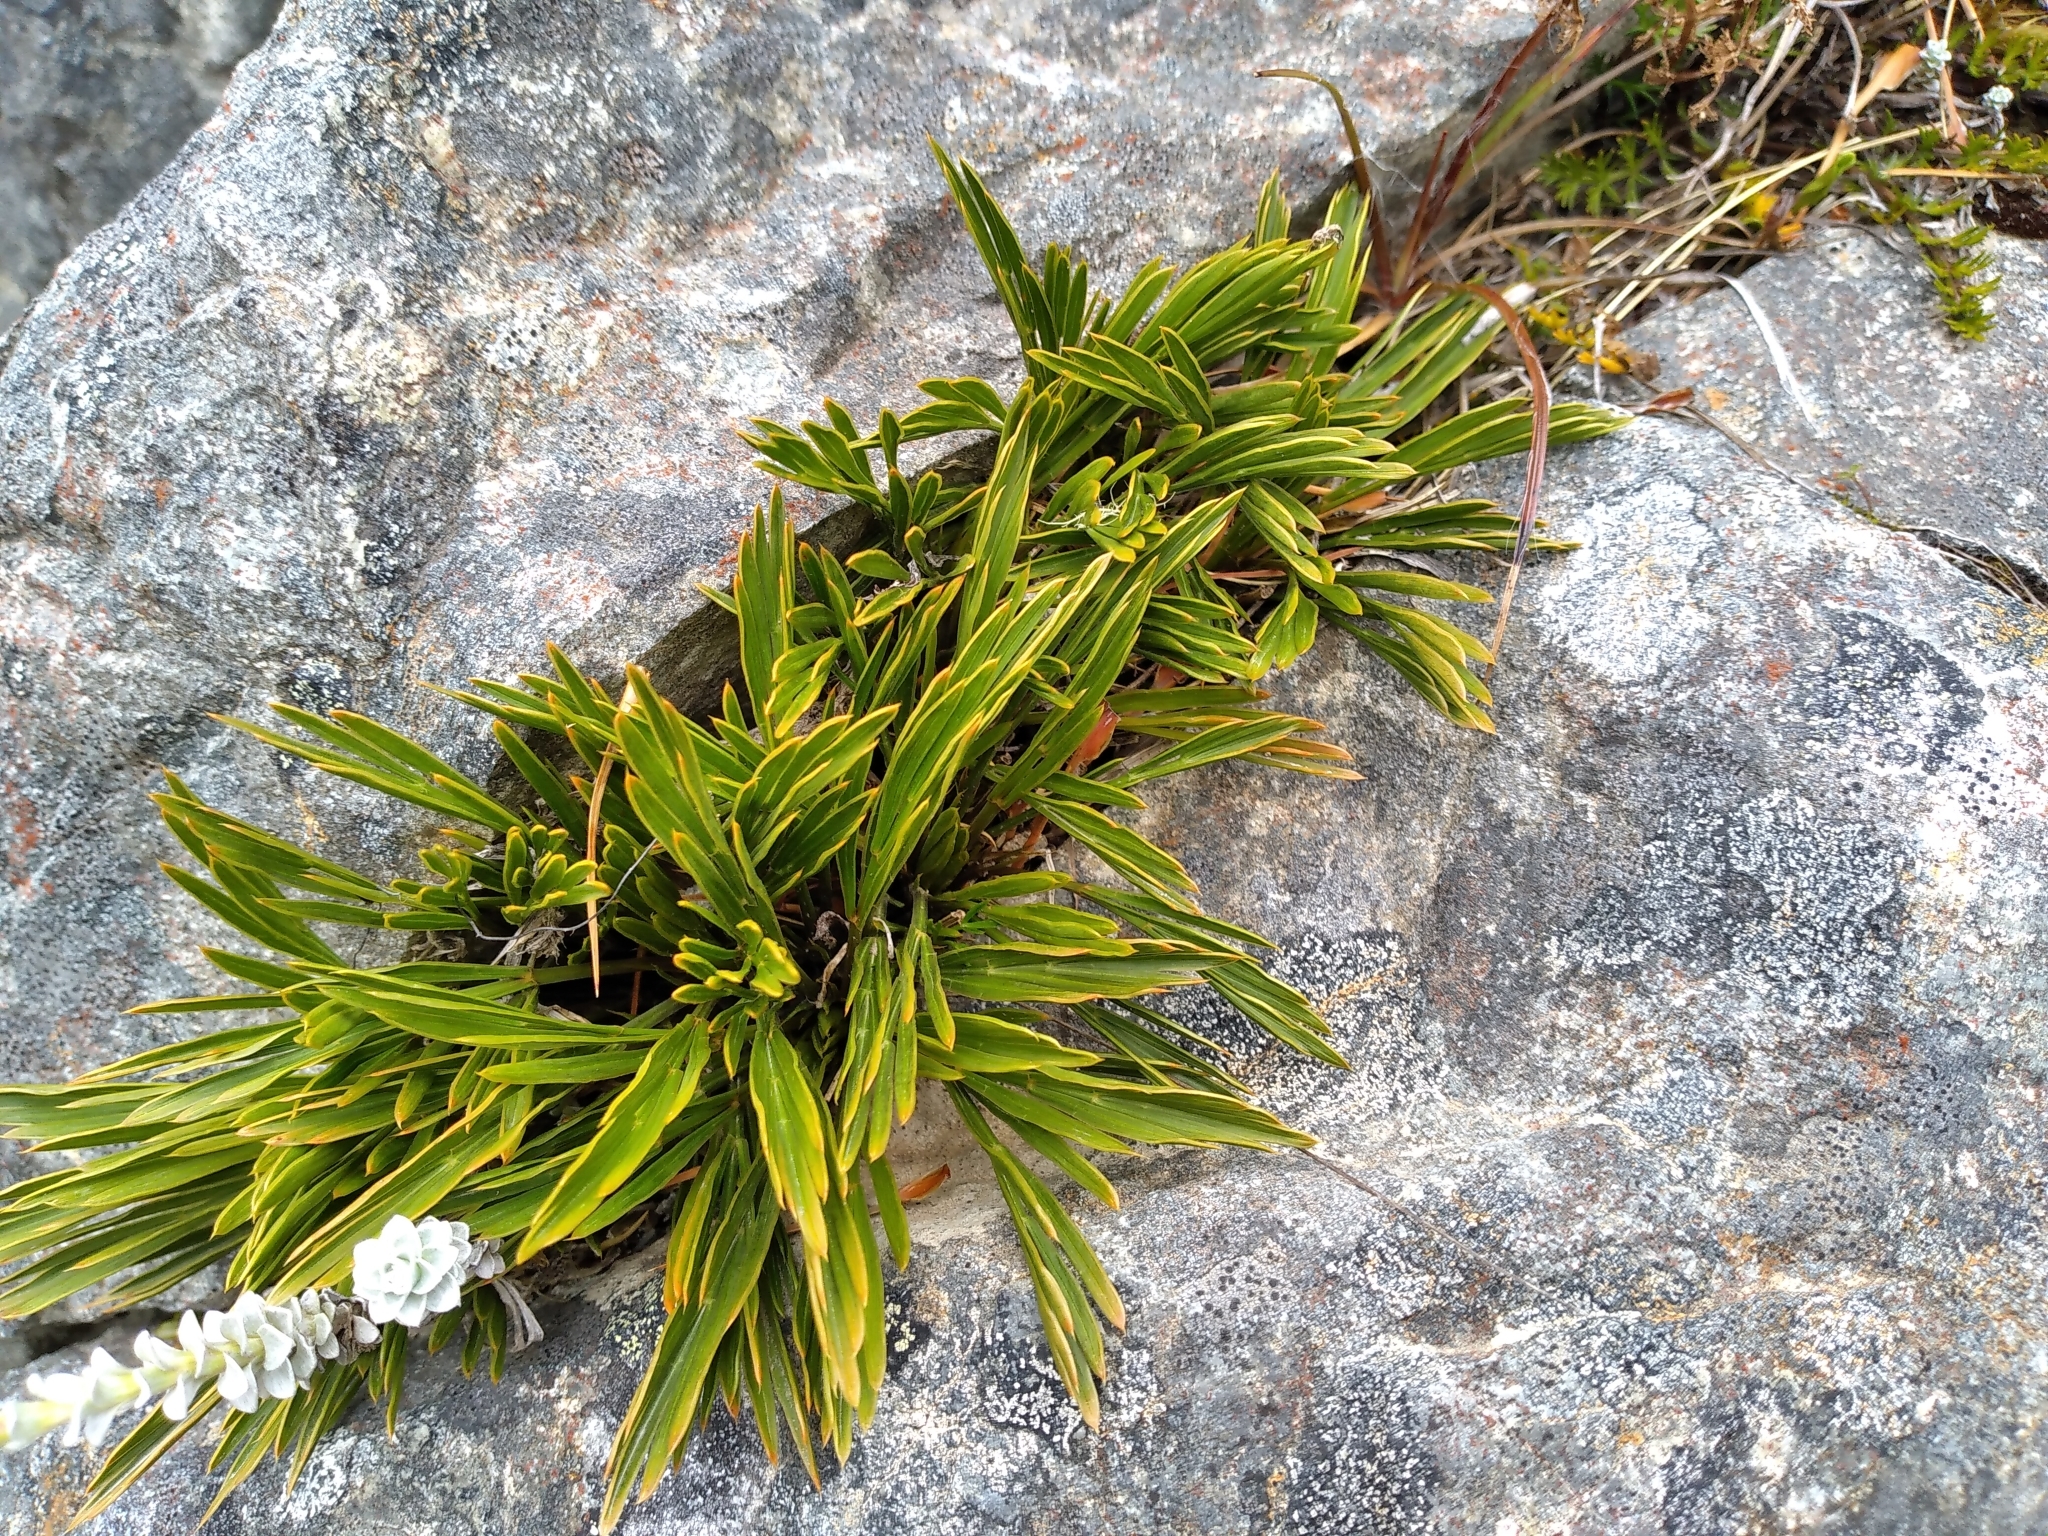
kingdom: Plantae
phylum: Tracheophyta
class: Magnoliopsida
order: Apiales
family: Apiaceae
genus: Aciphylla
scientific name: Aciphylla monroi
